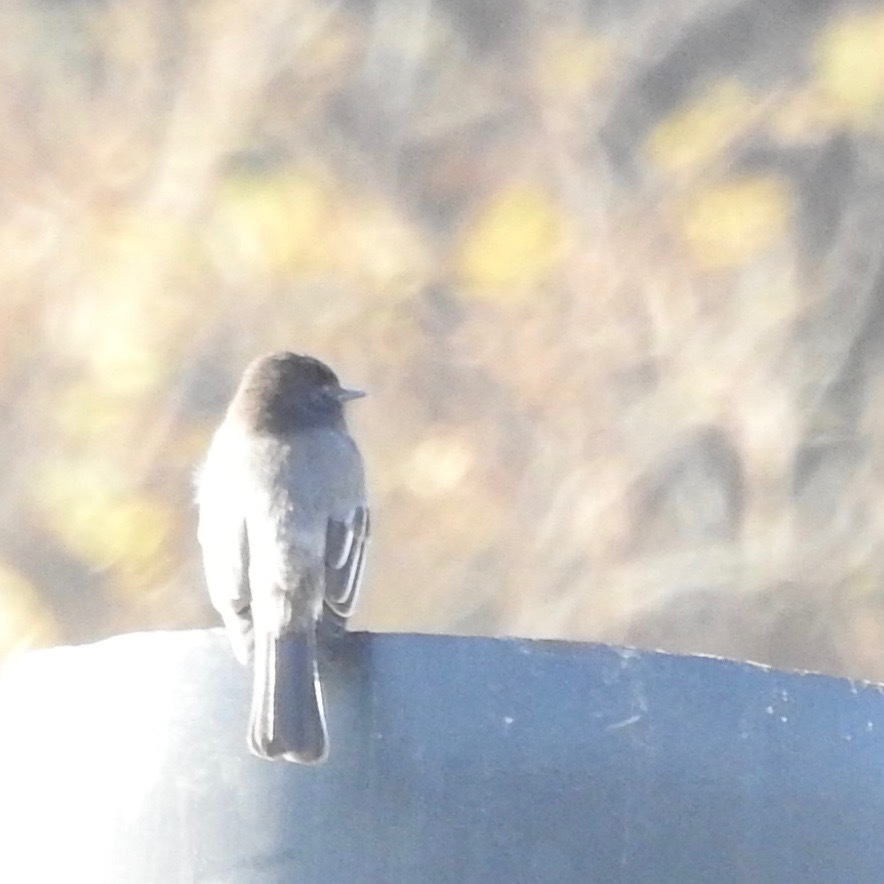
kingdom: Animalia
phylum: Chordata
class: Aves
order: Passeriformes
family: Tyrannidae
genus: Sayornis
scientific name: Sayornis nigricans
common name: Black phoebe
